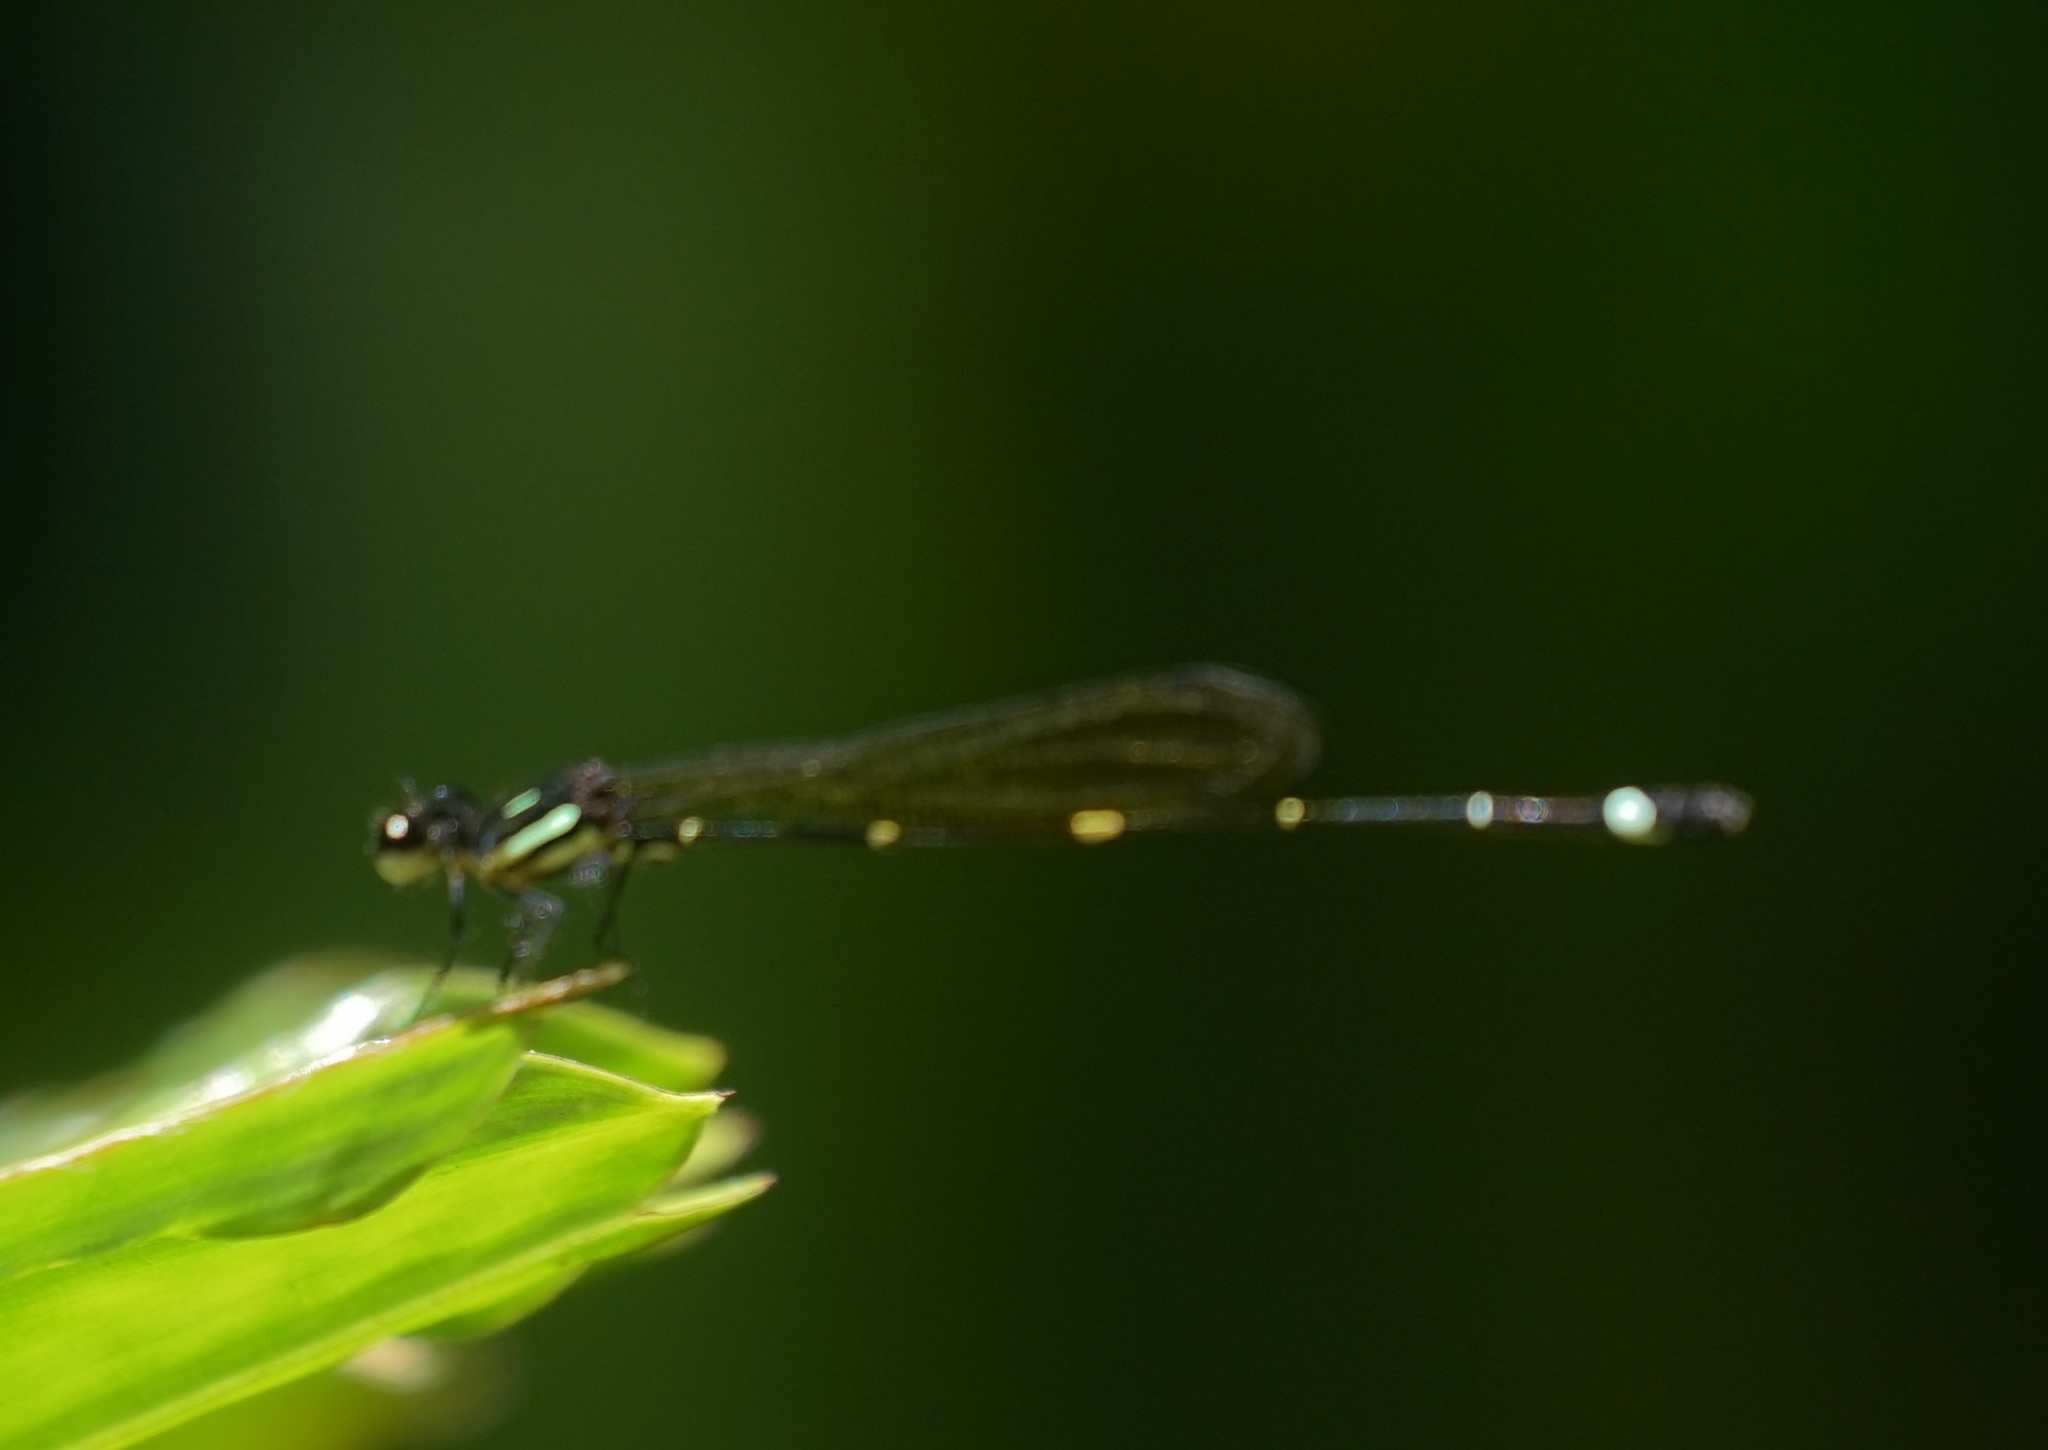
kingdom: Animalia
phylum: Arthropoda
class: Insecta
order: Odonata
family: Platycnemididae
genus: Nososticta
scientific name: Nososticta solitaria
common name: Fivespot threadtail
